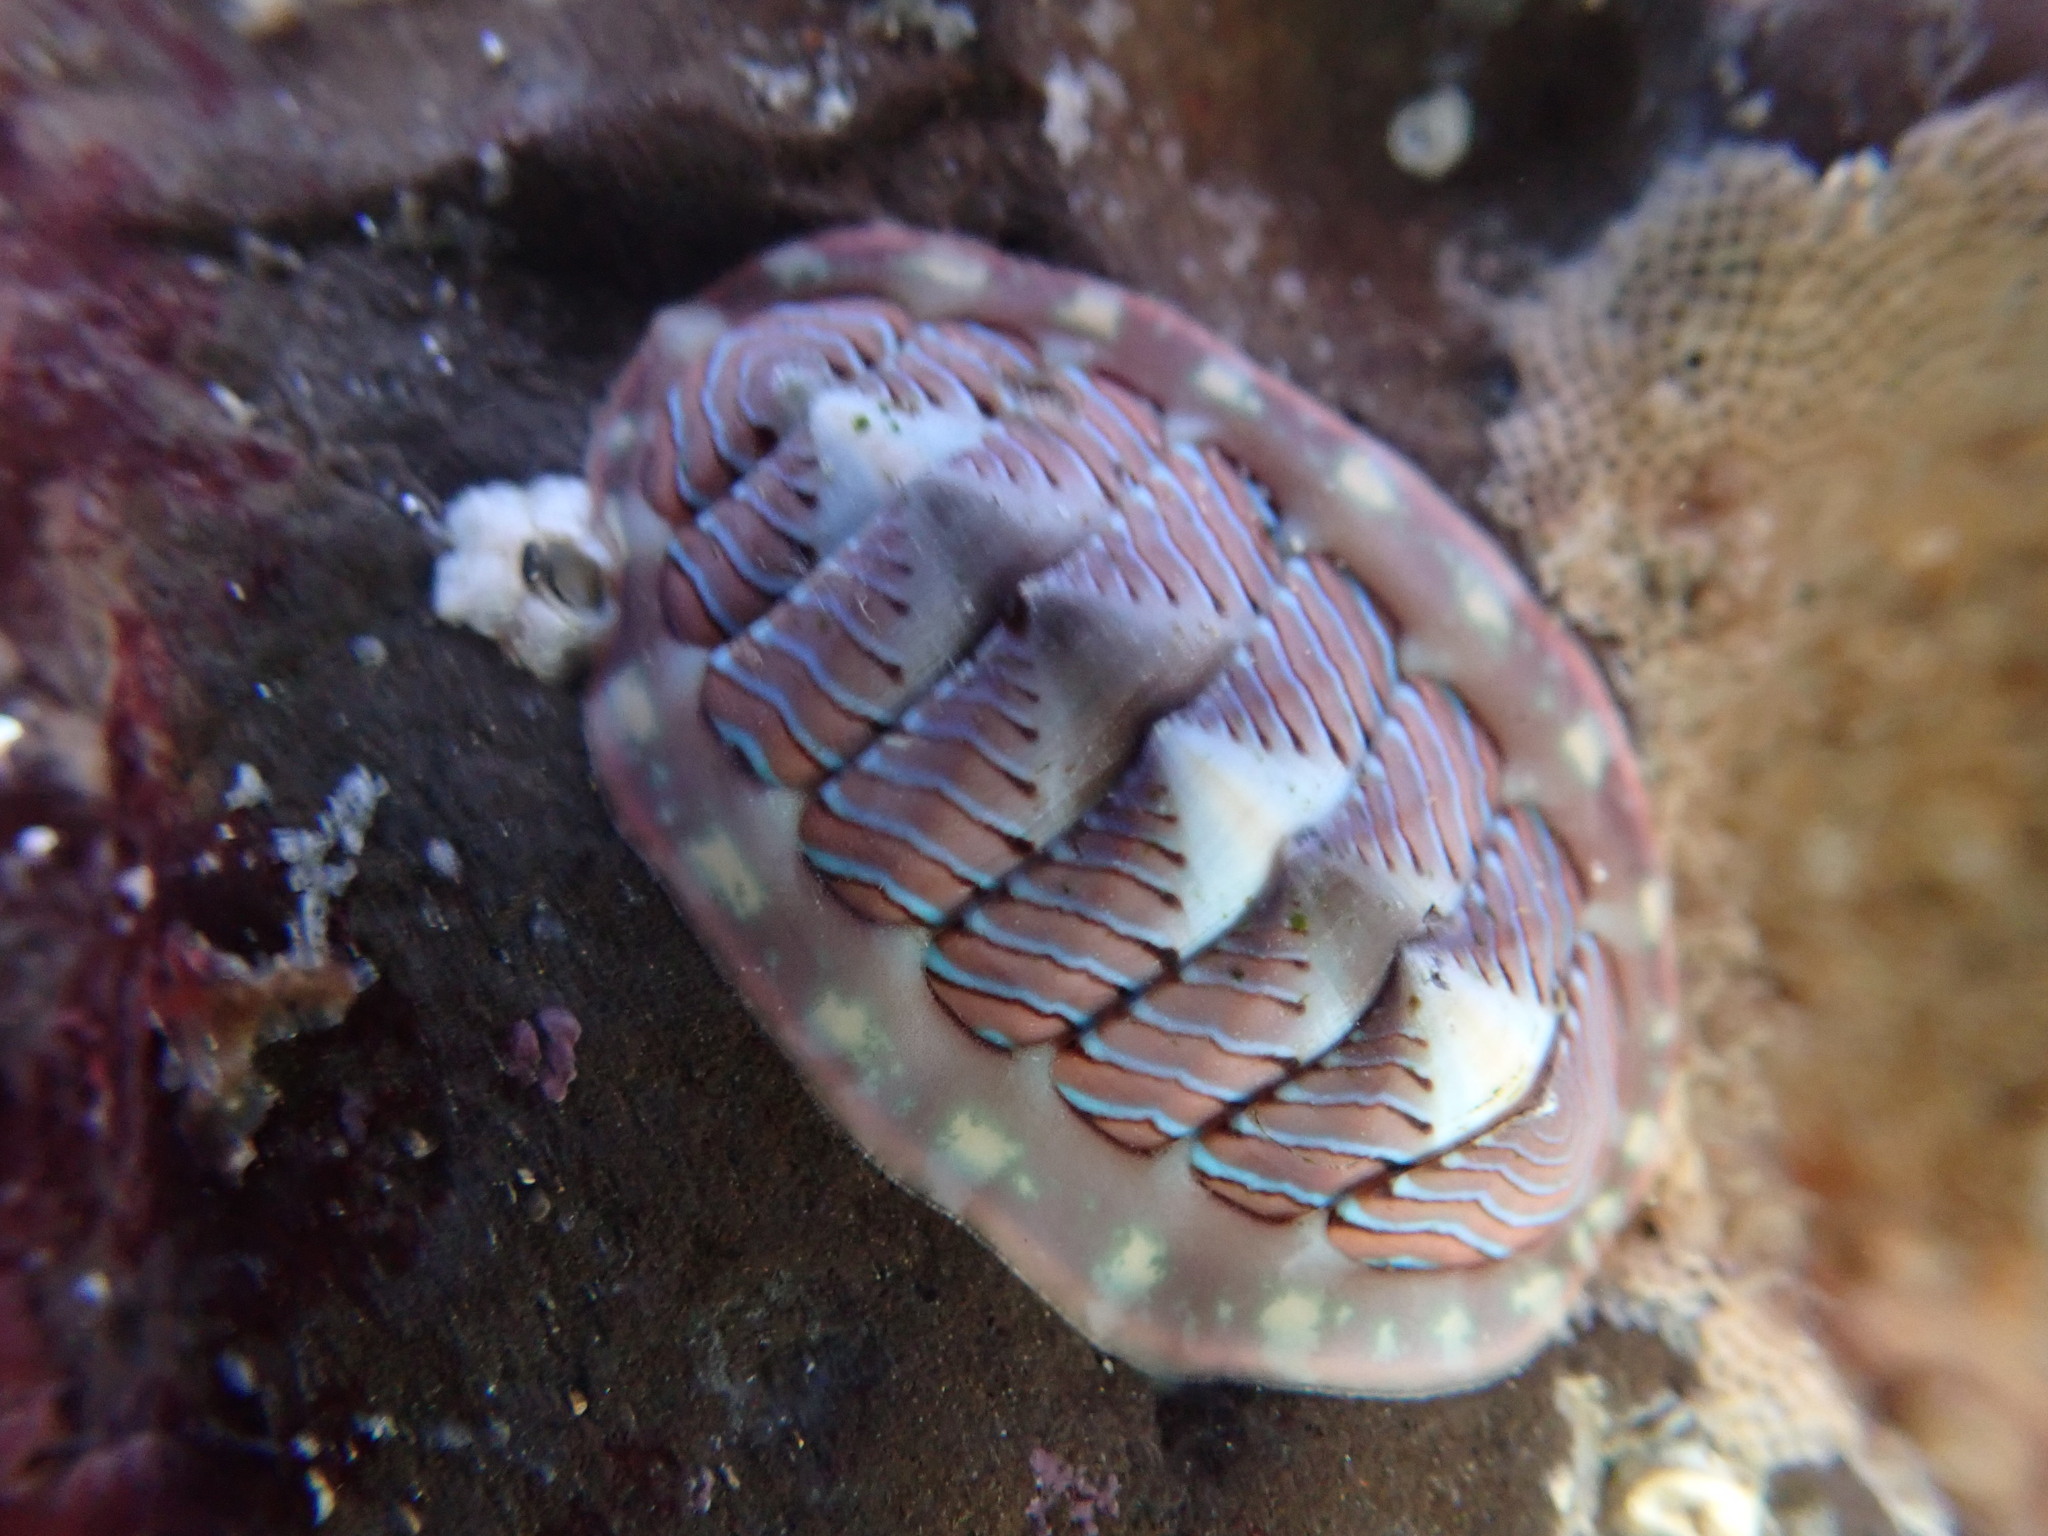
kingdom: Animalia
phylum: Mollusca
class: Polyplacophora
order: Chitonida
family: Tonicellidae
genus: Tonicella
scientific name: Tonicella lineata
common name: Lined chiton
